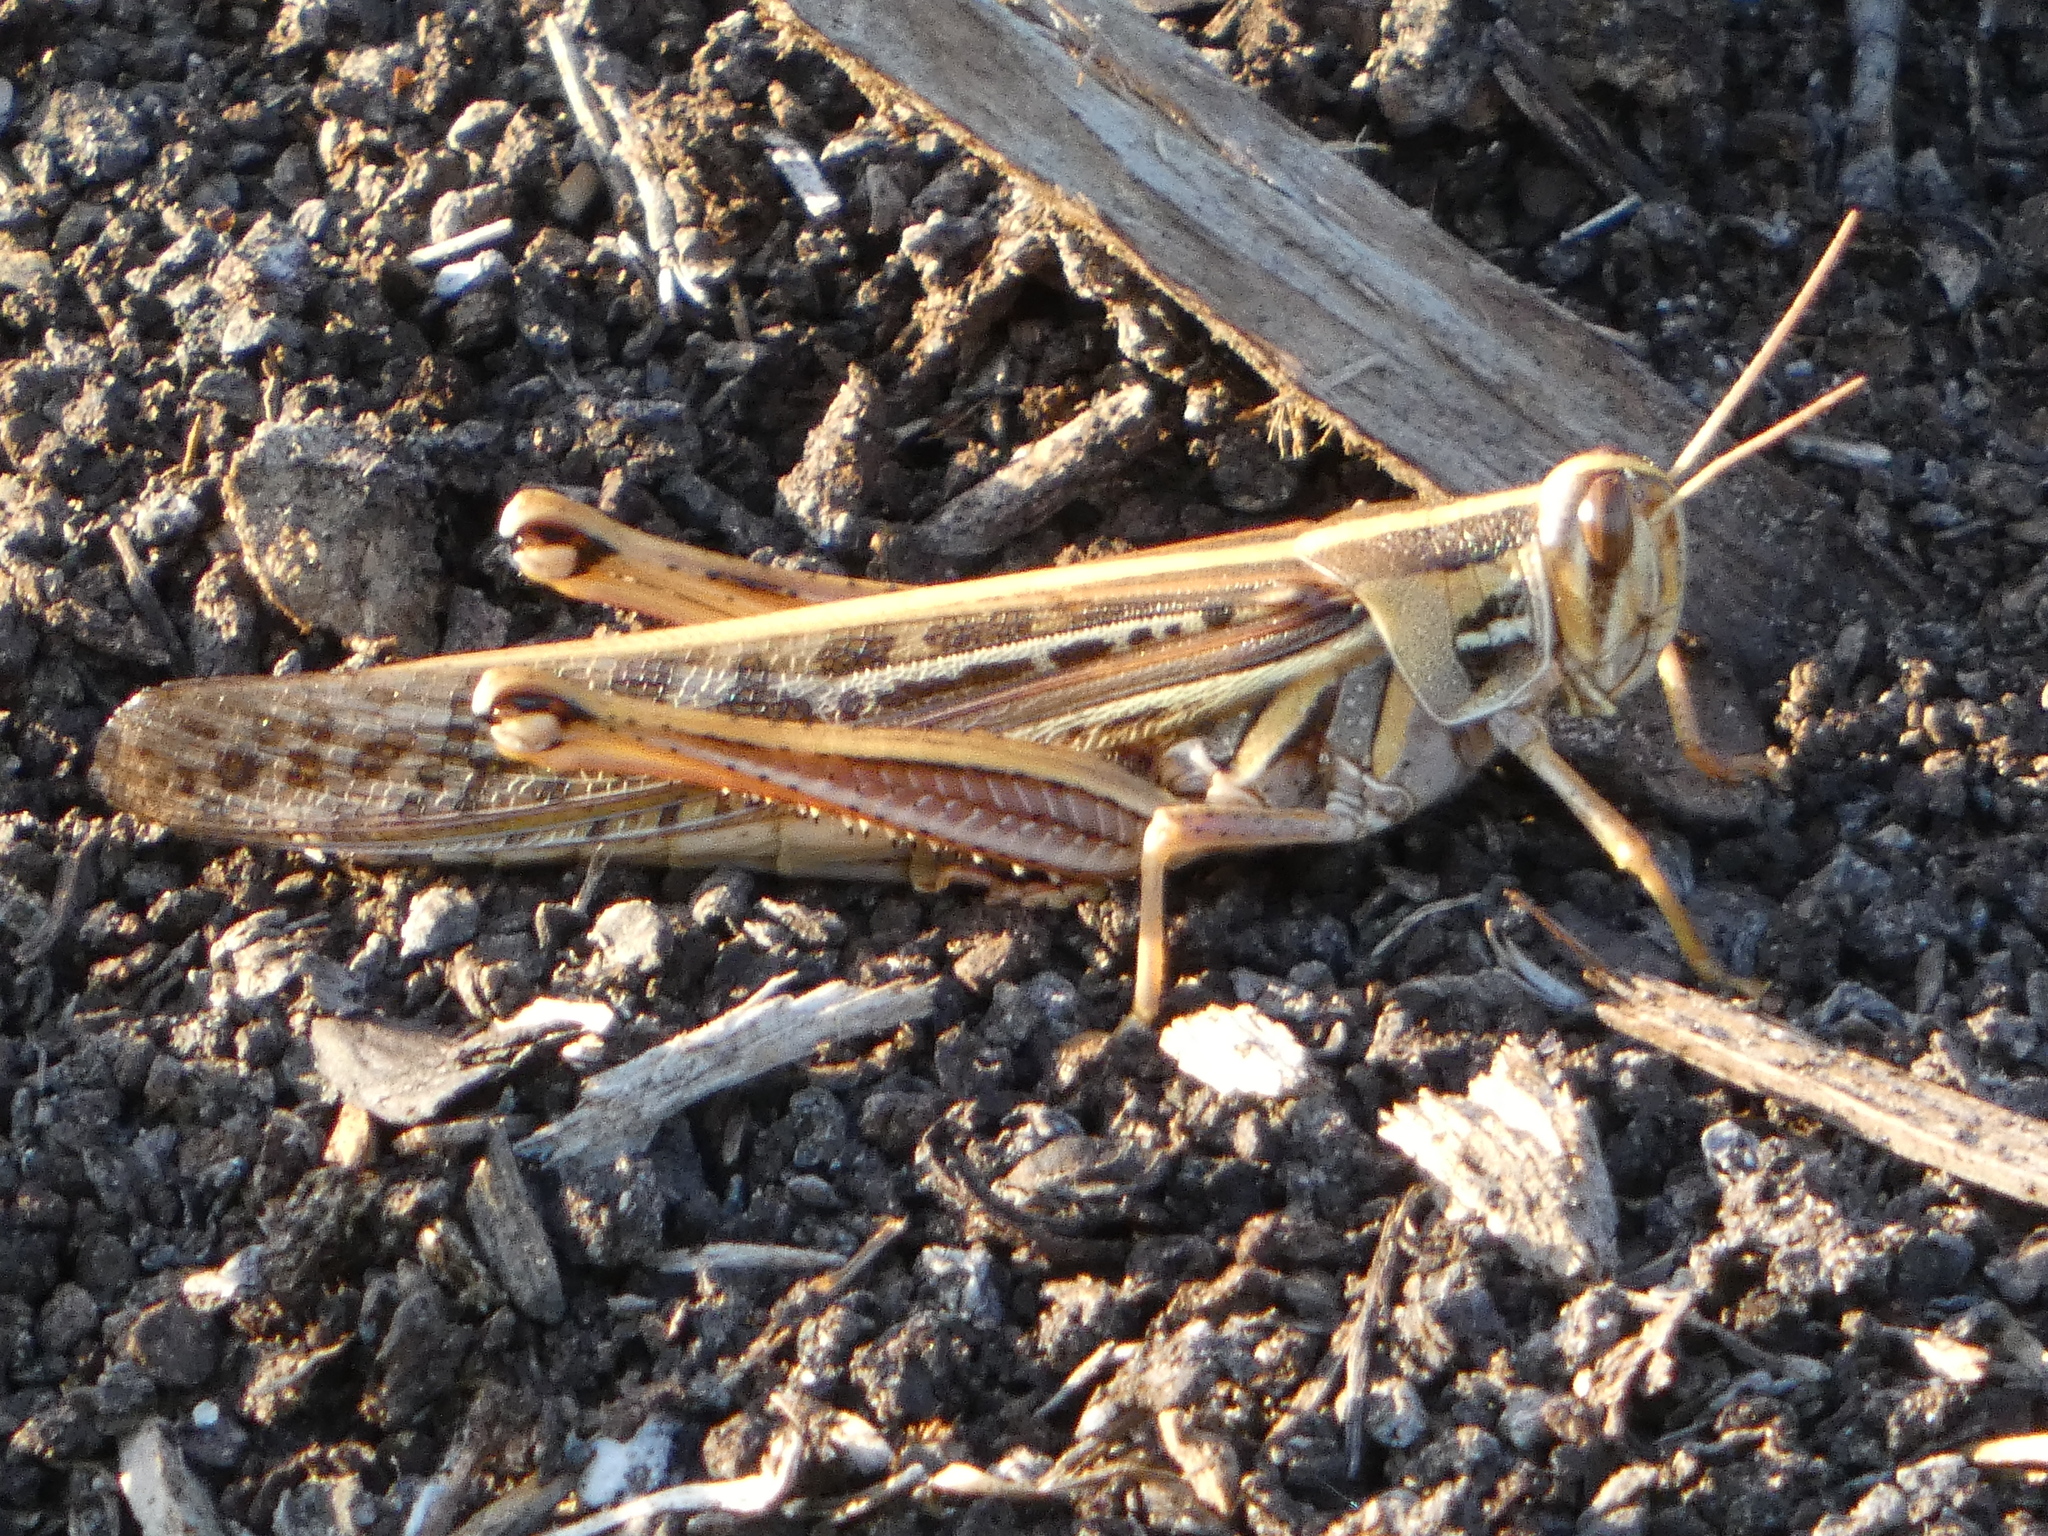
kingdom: Animalia
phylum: Arthropoda
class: Insecta
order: Orthoptera
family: Acrididae
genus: Schistocerca
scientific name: Schistocerca americana
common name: American bird locust
